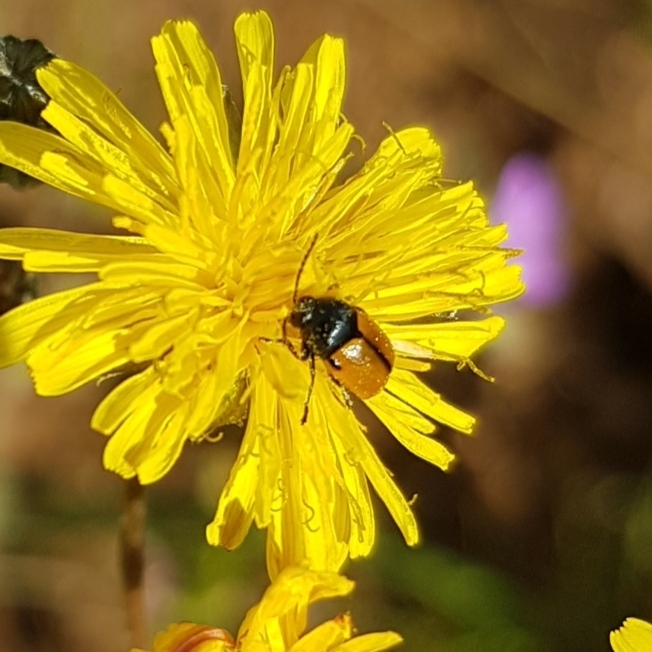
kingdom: Animalia
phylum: Arthropoda
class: Insecta
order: Coleoptera
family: Chrysomelidae
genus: Cryptocephalus
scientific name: Cryptocephalus rugicollis
